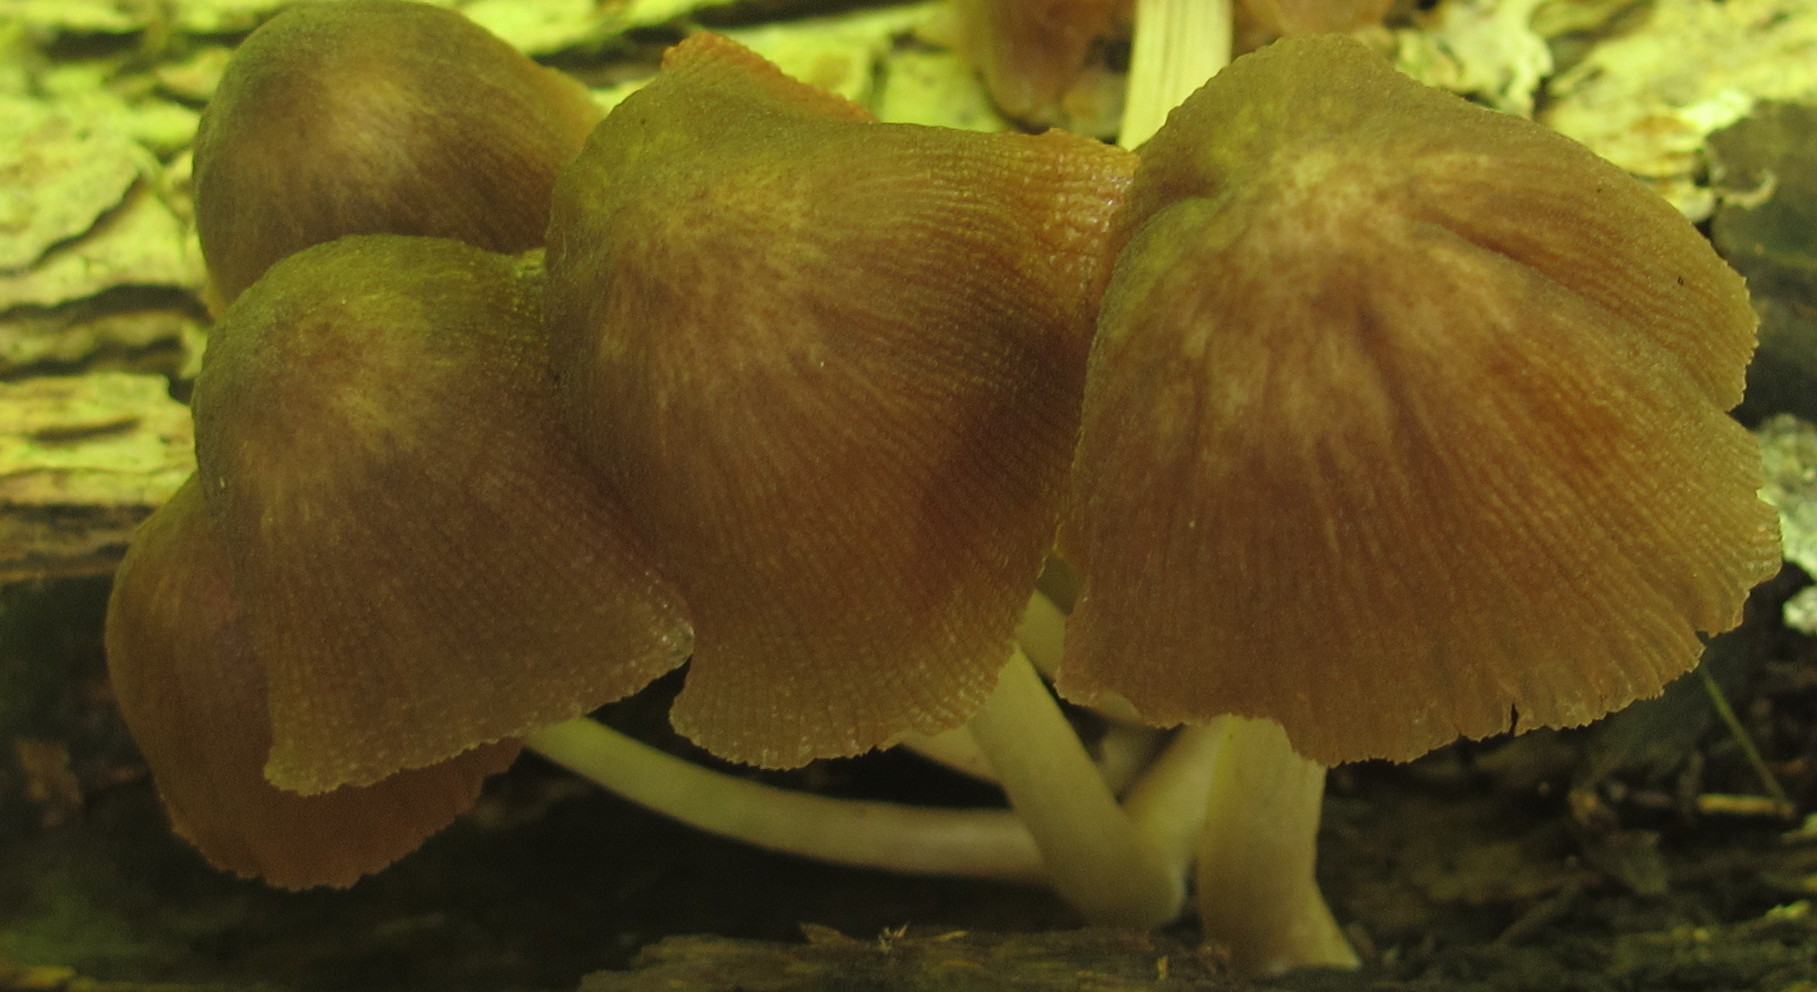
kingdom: Fungi
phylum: Basidiomycota
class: Agaricomycetes
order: Agaricales
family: Pluteaceae
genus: Pluteus
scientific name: Pluteus longistriatus
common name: Pleated pluteus
